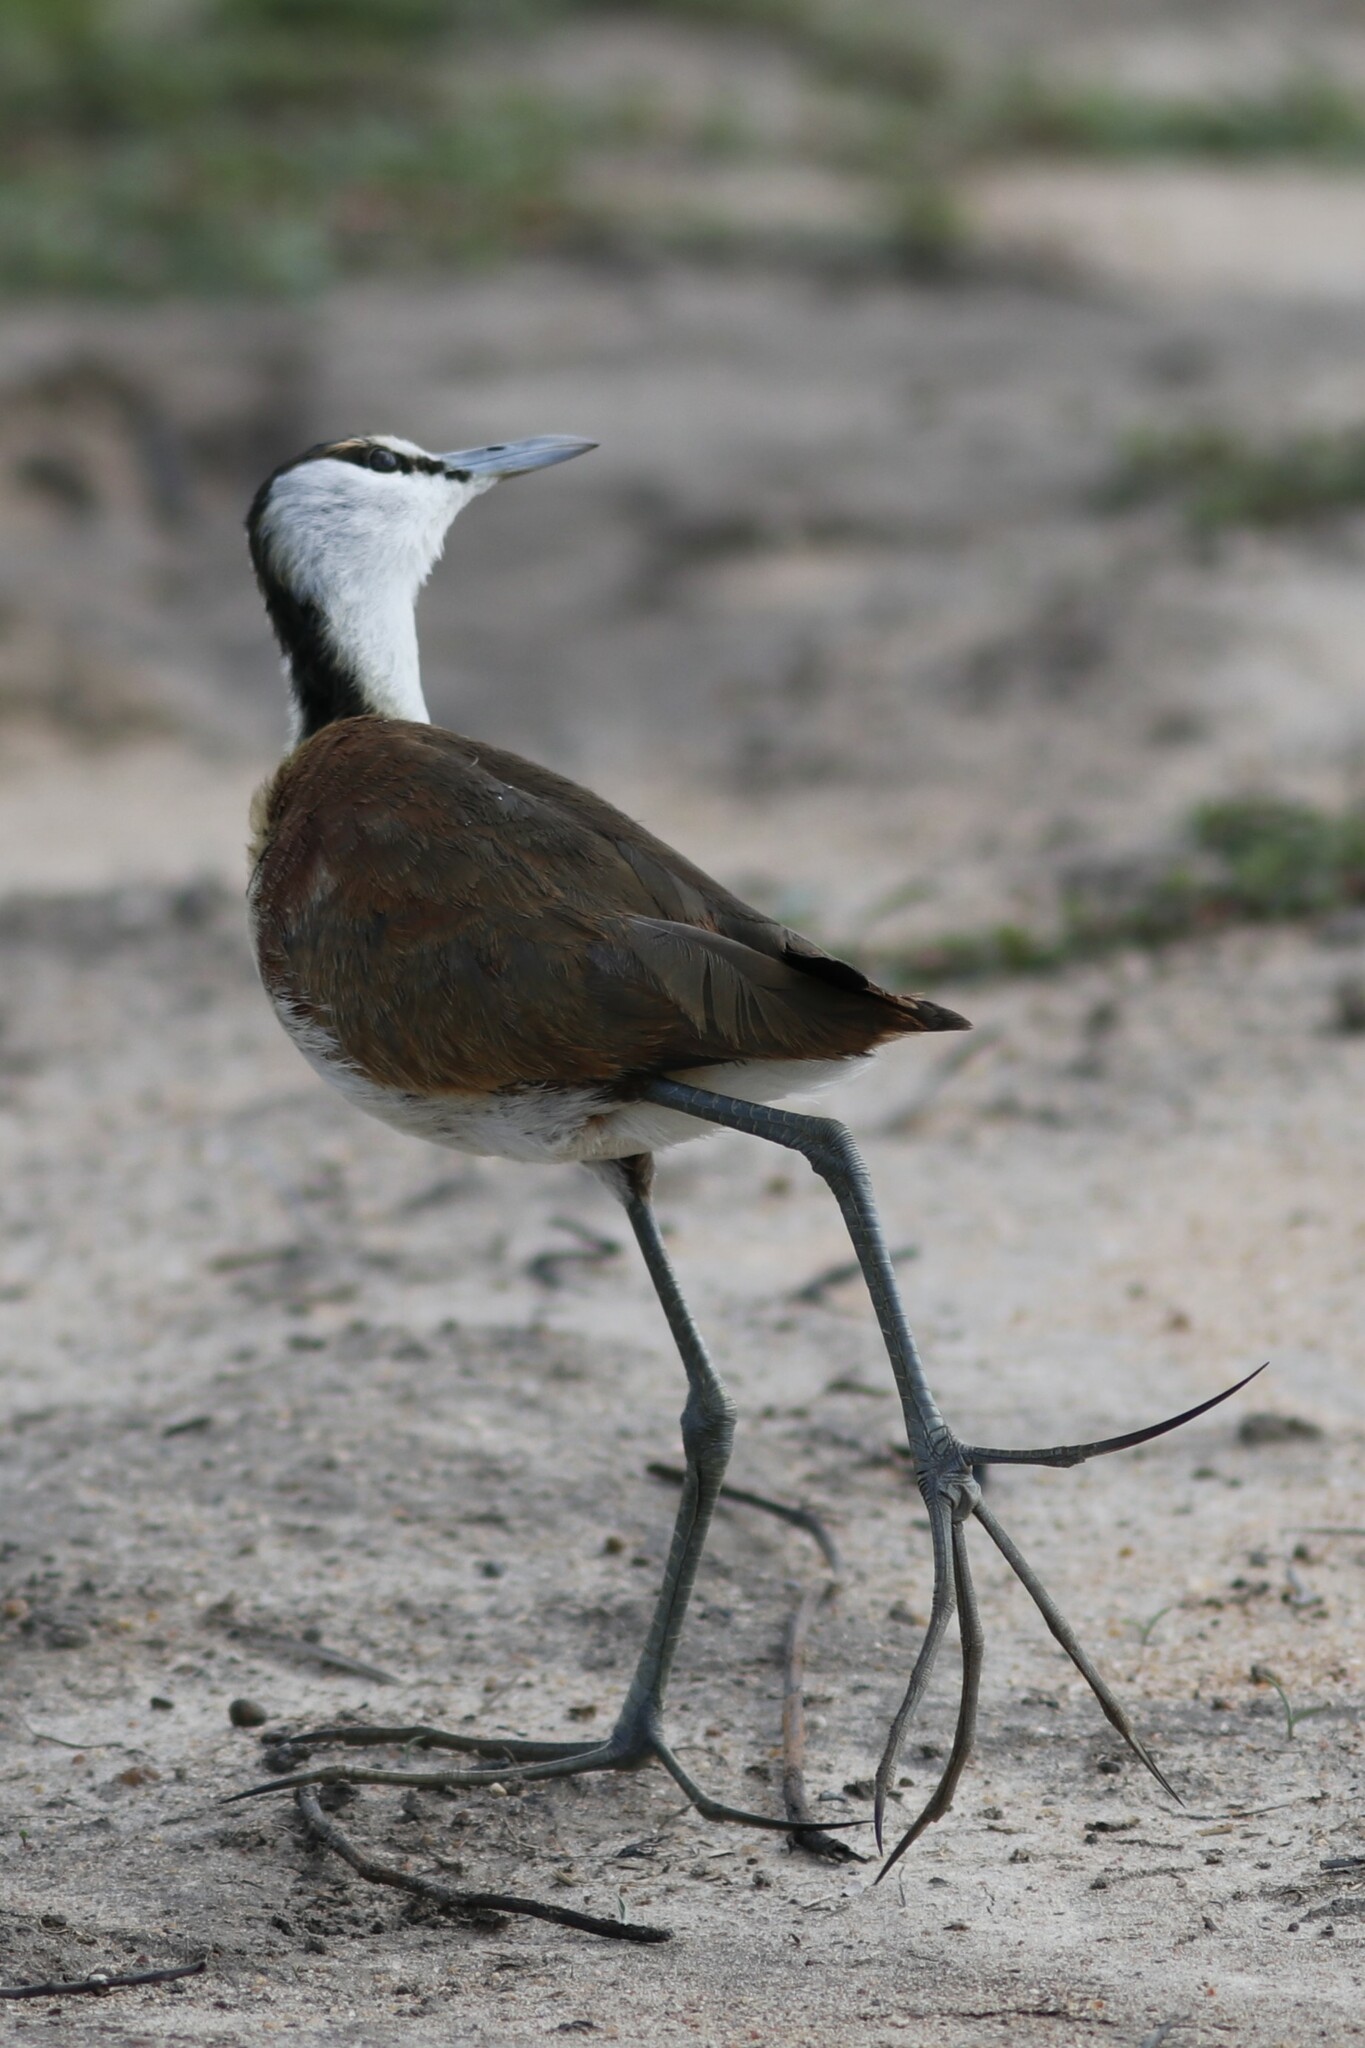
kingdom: Animalia
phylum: Chordata
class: Aves
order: Charadriiformes
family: Jacanidae
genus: Actophilornis
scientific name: Actophilornis africanus
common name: African jacana
